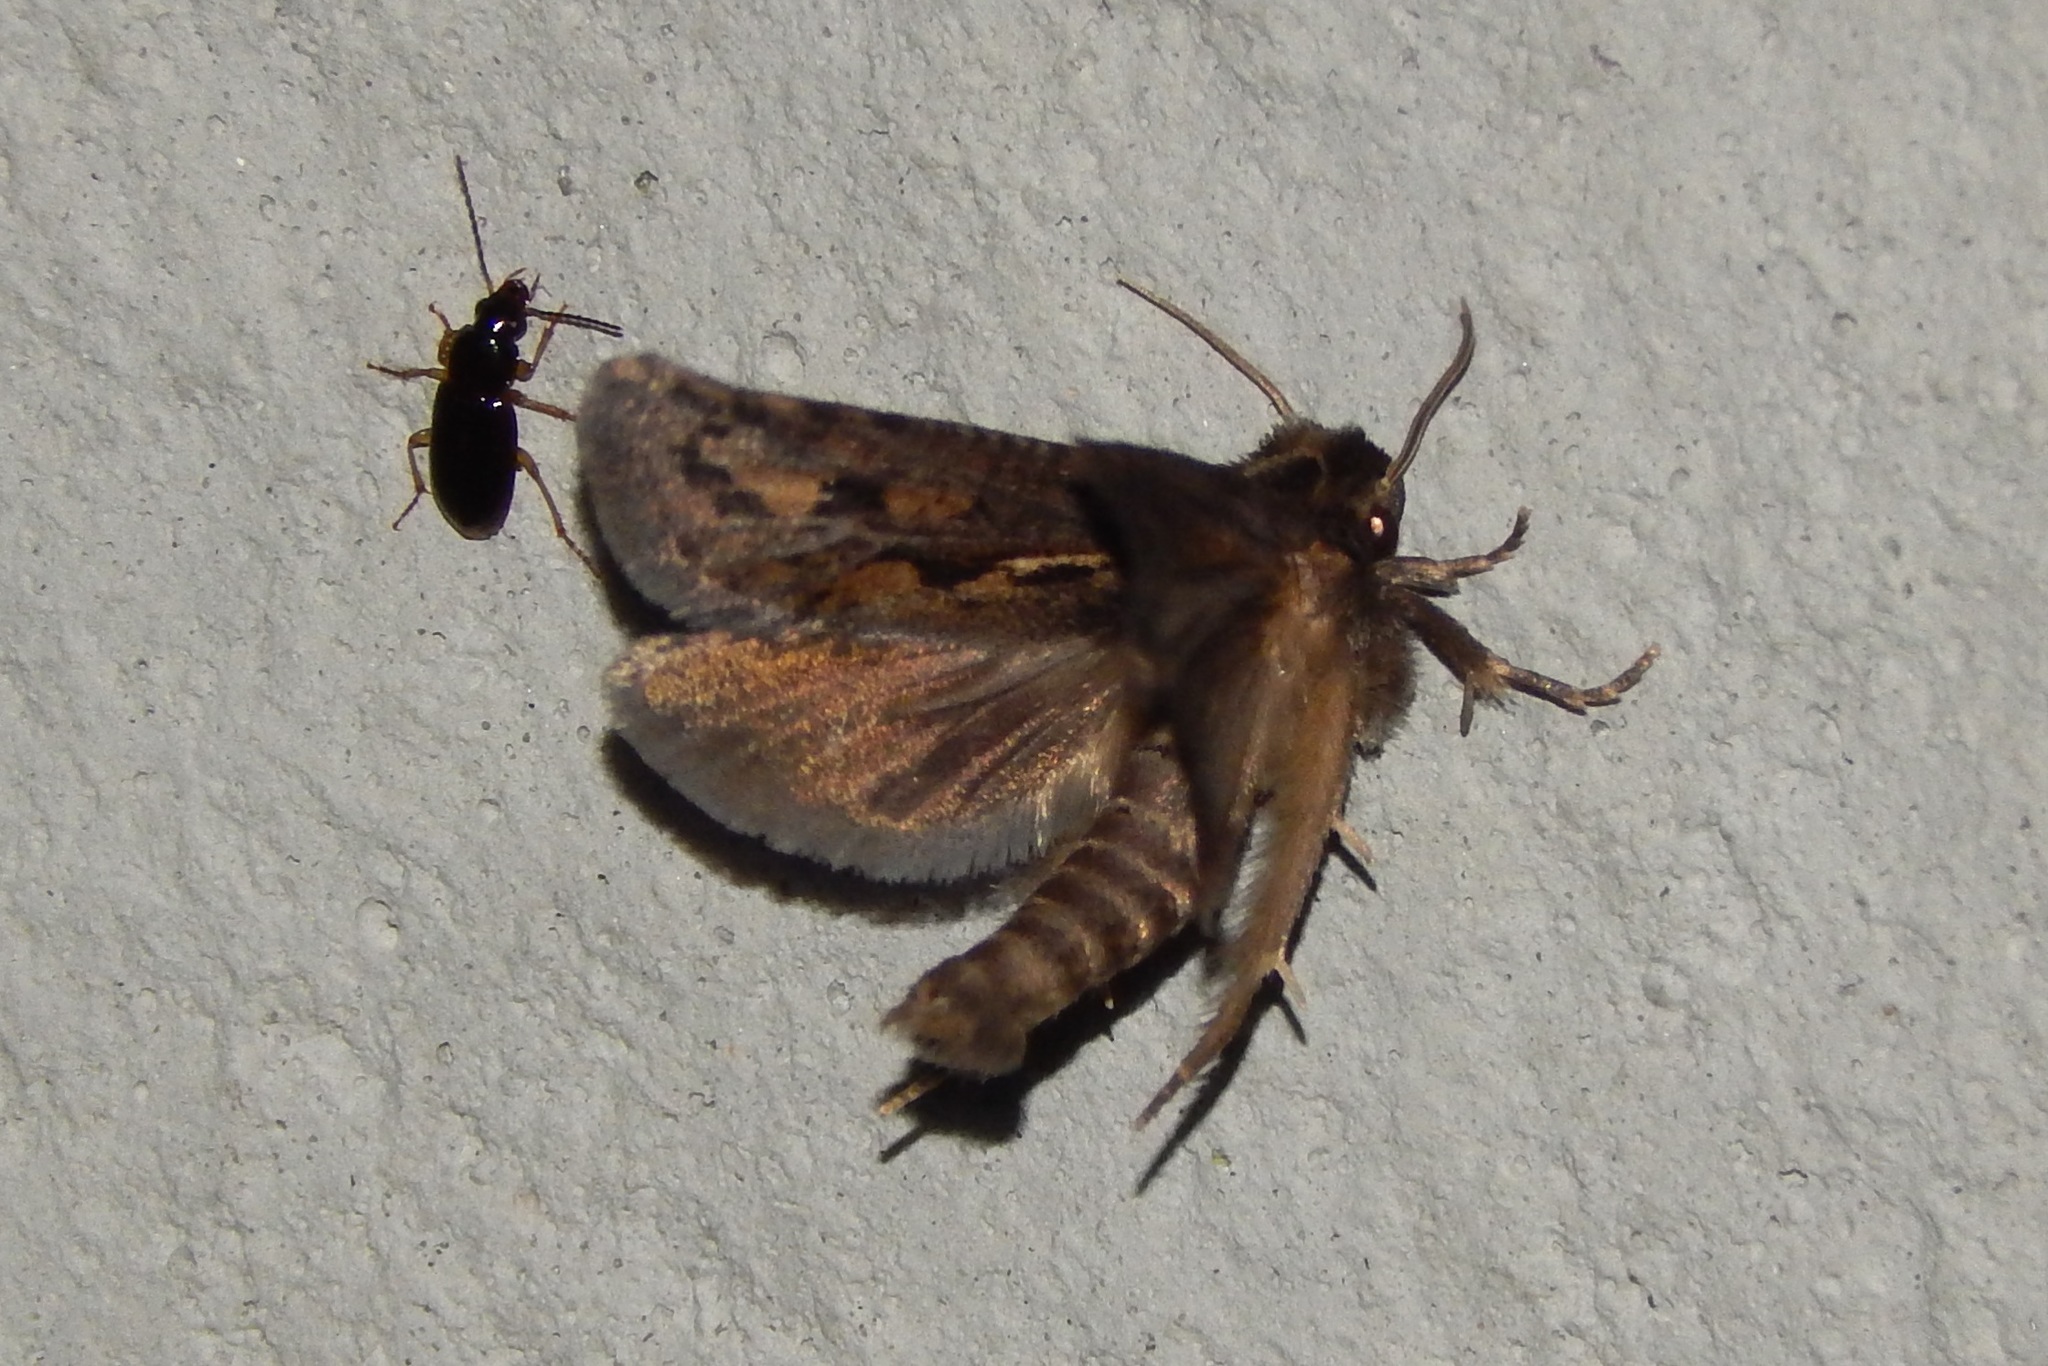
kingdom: Animalia
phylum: Arthropoda
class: Insecta
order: Lepidoptera
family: Tineidae
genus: Acrolophus
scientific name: Acrolophus popeanella
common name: Clemens' grass tubeworm moth
